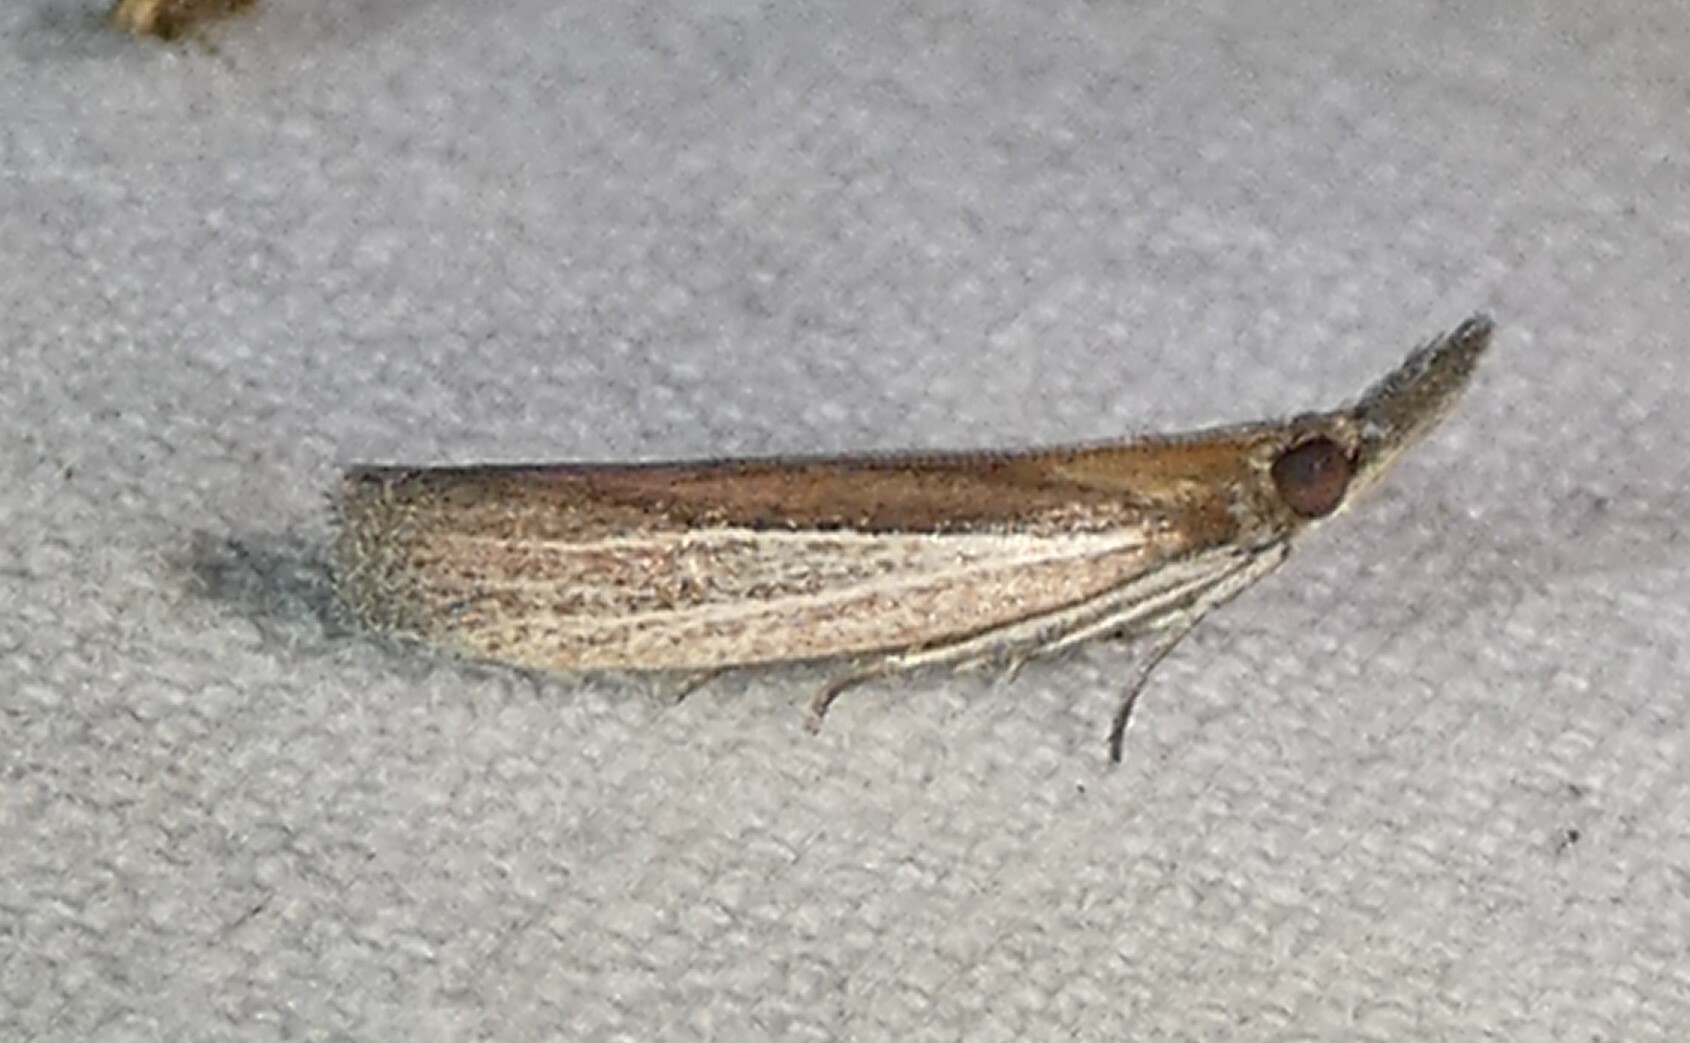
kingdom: Animalia
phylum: Arthropoda
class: Insecta
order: Lepidoptera
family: Pyralidae
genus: Tampa
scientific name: Tampa dimediatella
